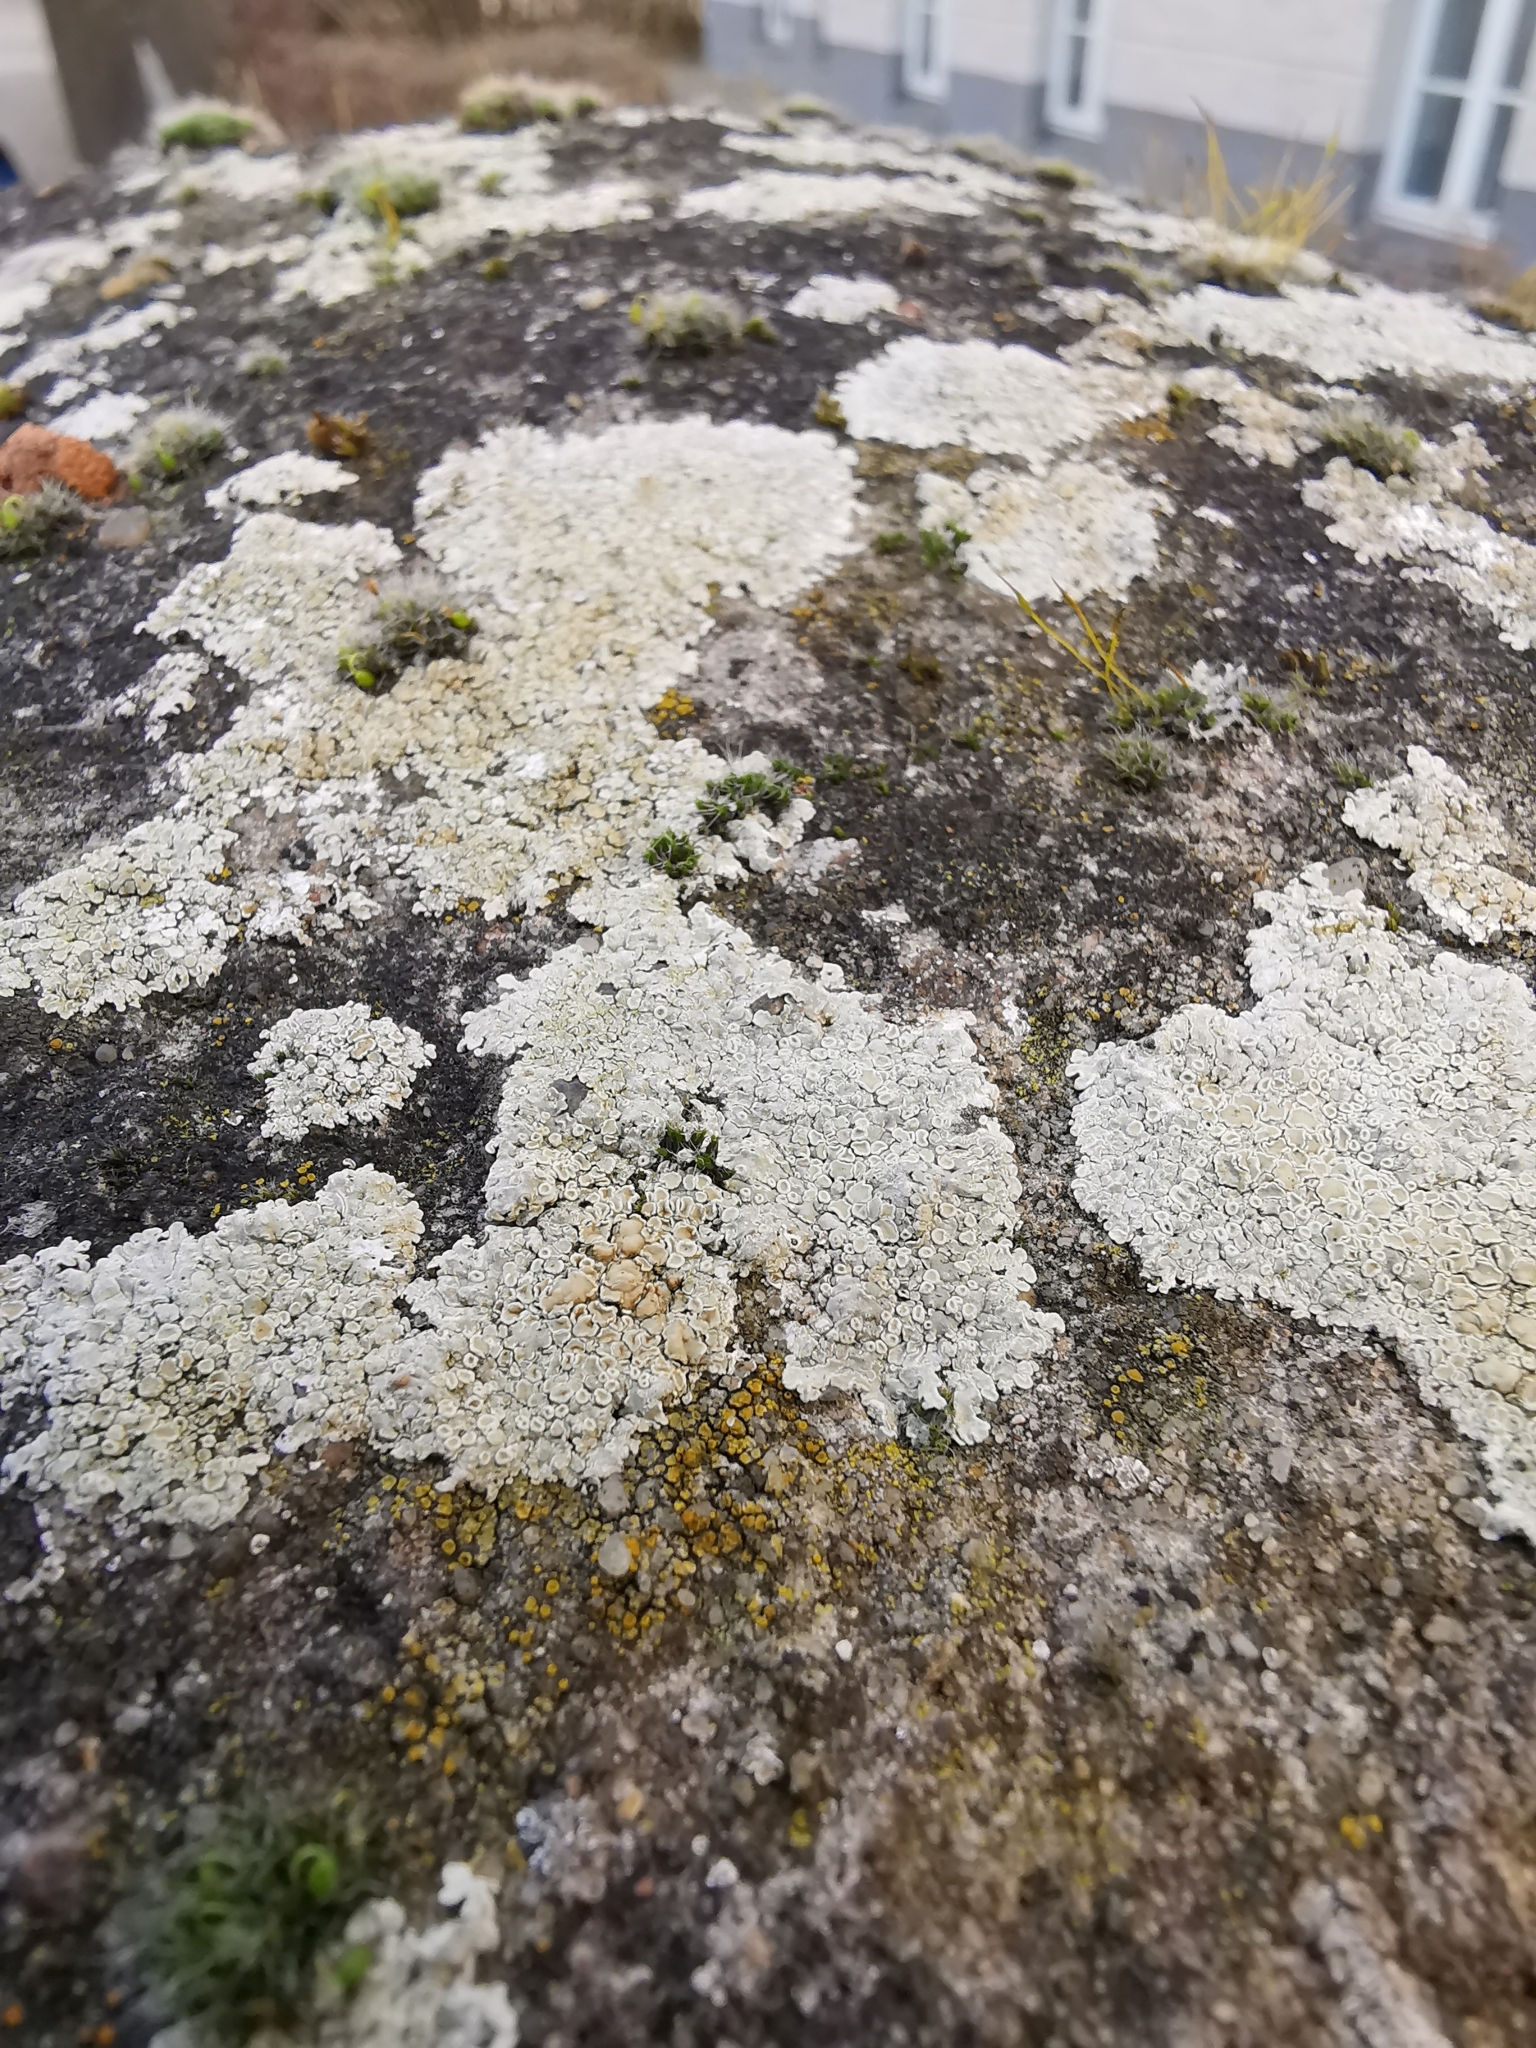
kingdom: Fungi
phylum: Ascomycota
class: Lecanoromycetes
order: Lecanorales
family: Lecanoraceae
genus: Protoparmeliopsis
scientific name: Protoparmeliopsis muralis
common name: Stonewall rim lichen
